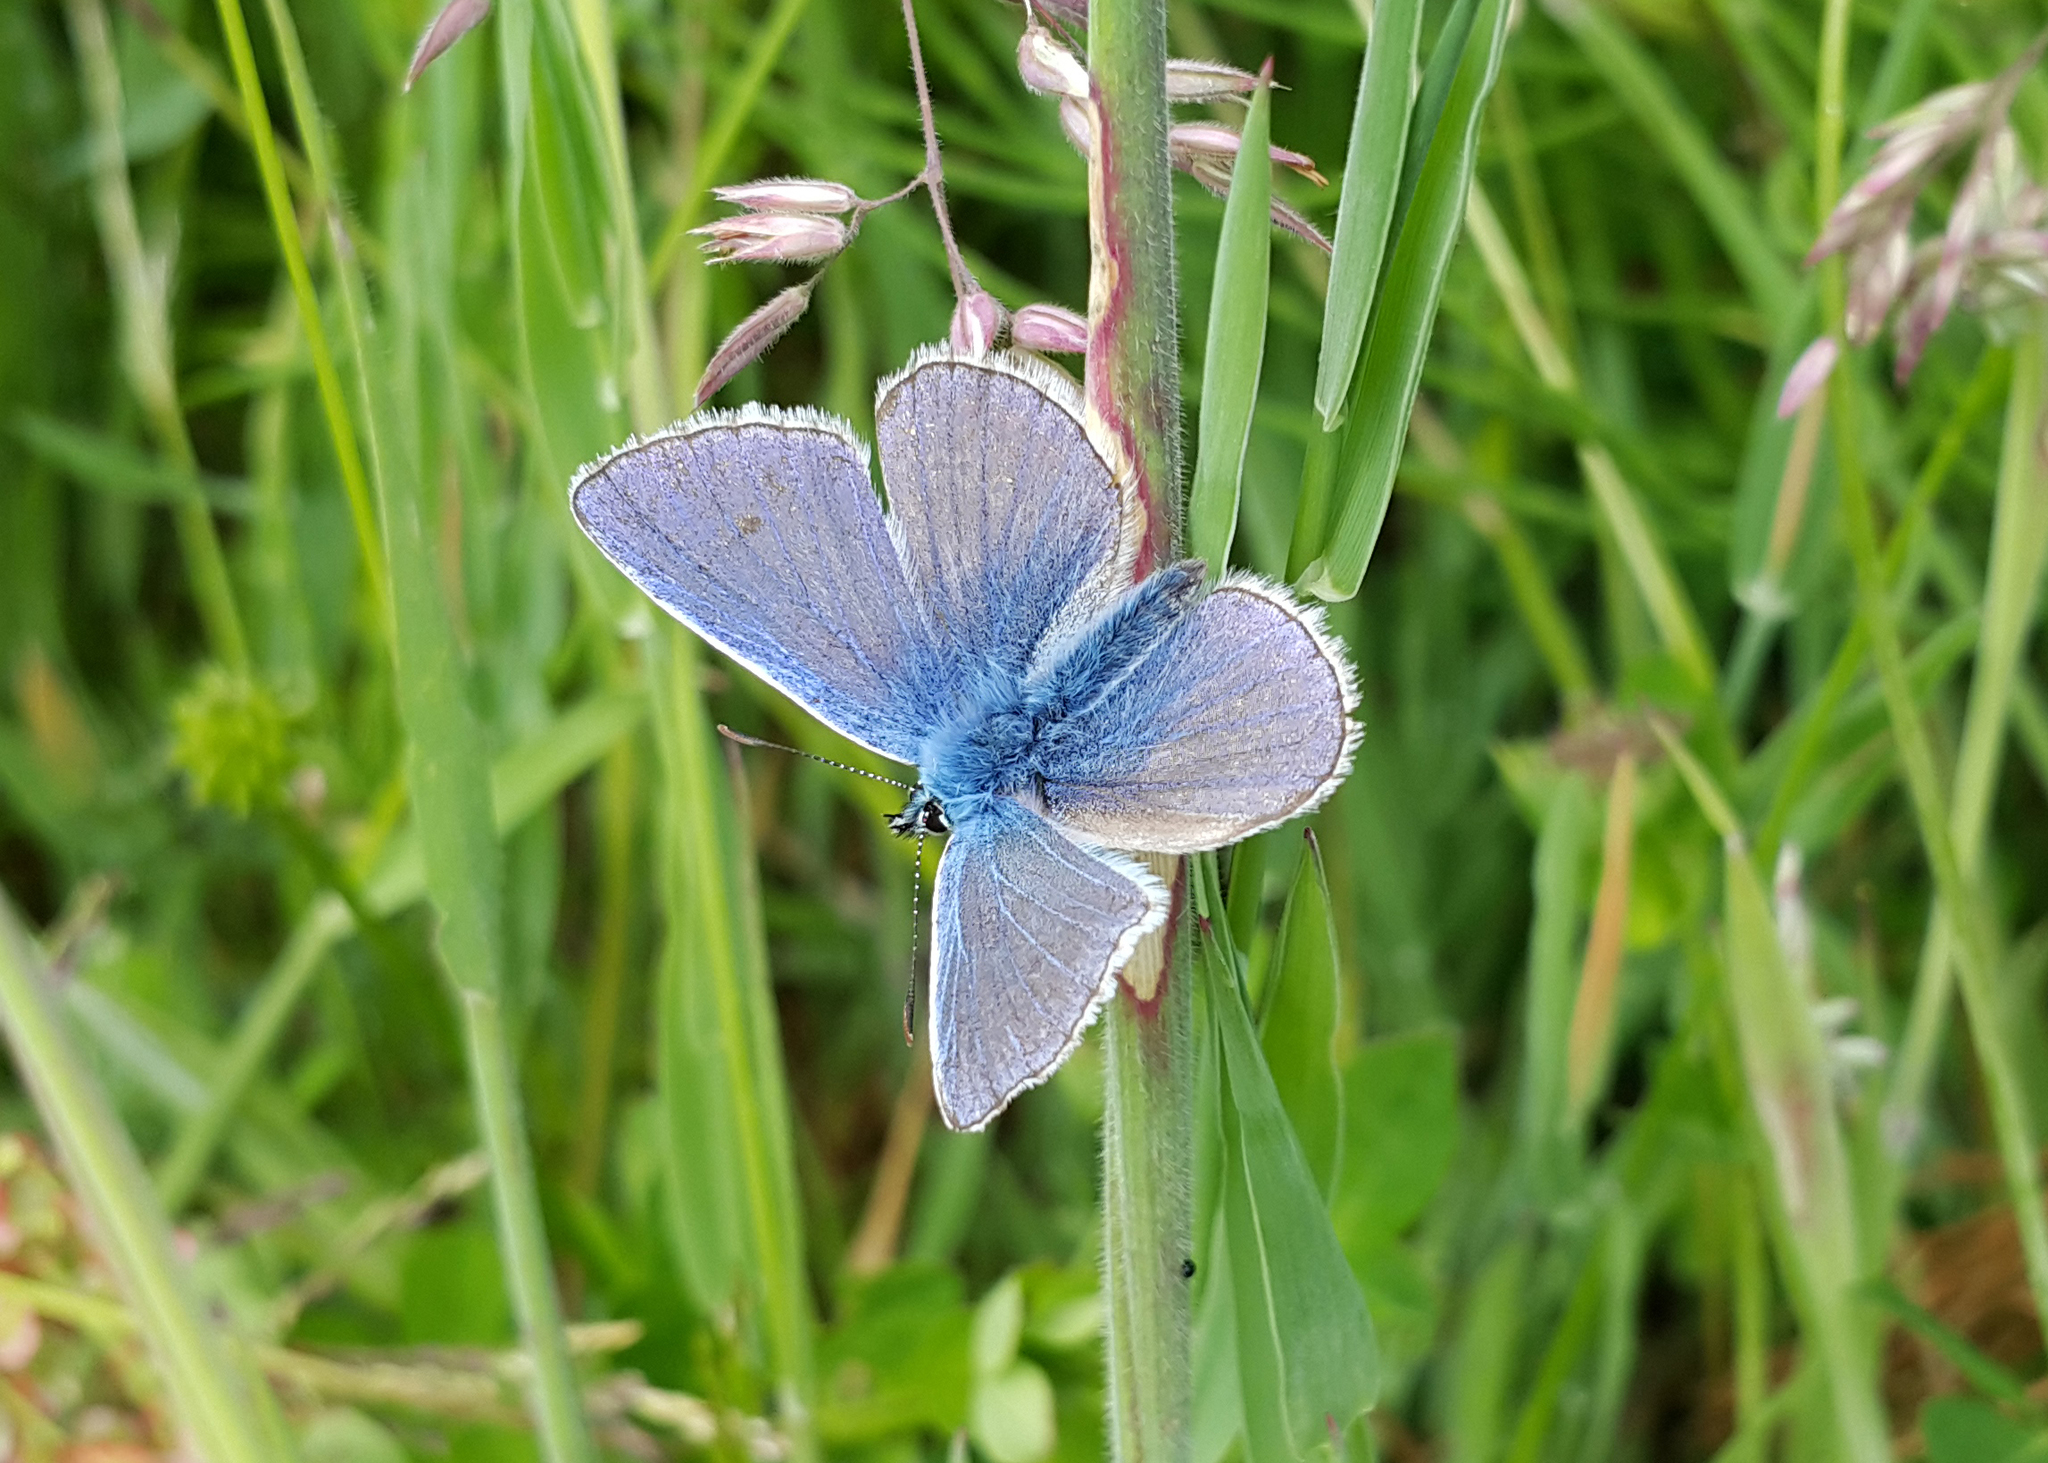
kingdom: Animalia
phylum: Arthropoda
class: Insecta
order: Lepidoptera
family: Lycaenidae
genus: Polyommatus
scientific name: Polyommatus icarus
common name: Common blue
